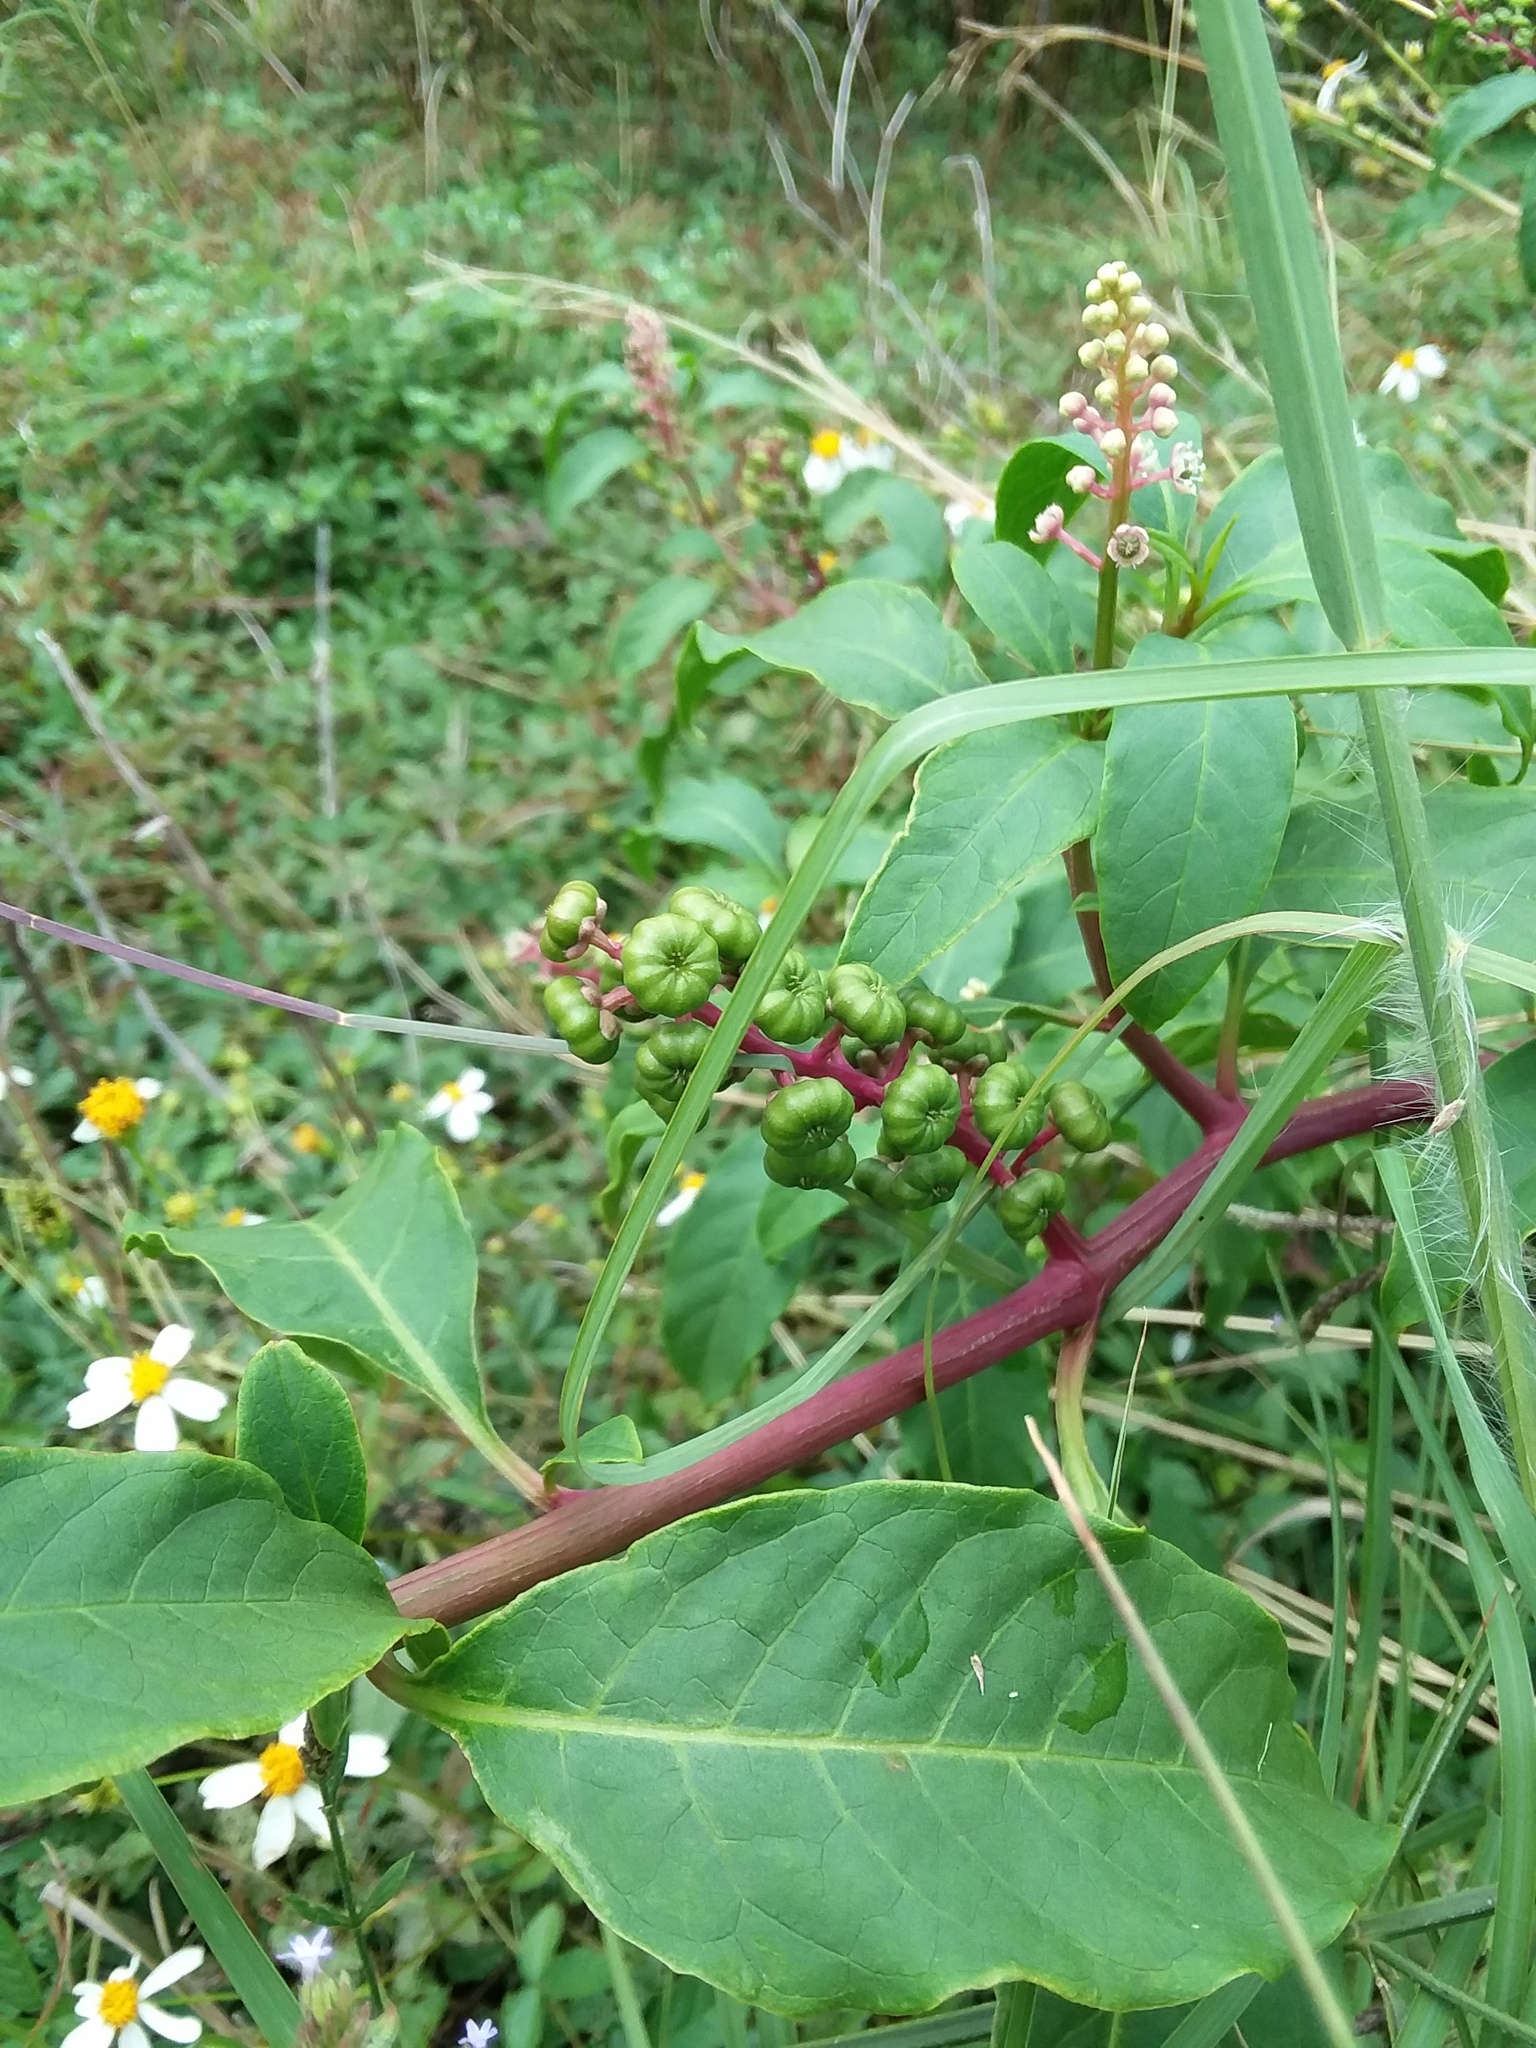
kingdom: Plantae
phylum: Tracheophyta
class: Magnoliopsida
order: Caryophyllales
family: Phytolaccaceae
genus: Phytolacca
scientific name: Phytolacca americana
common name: American pokeweed
